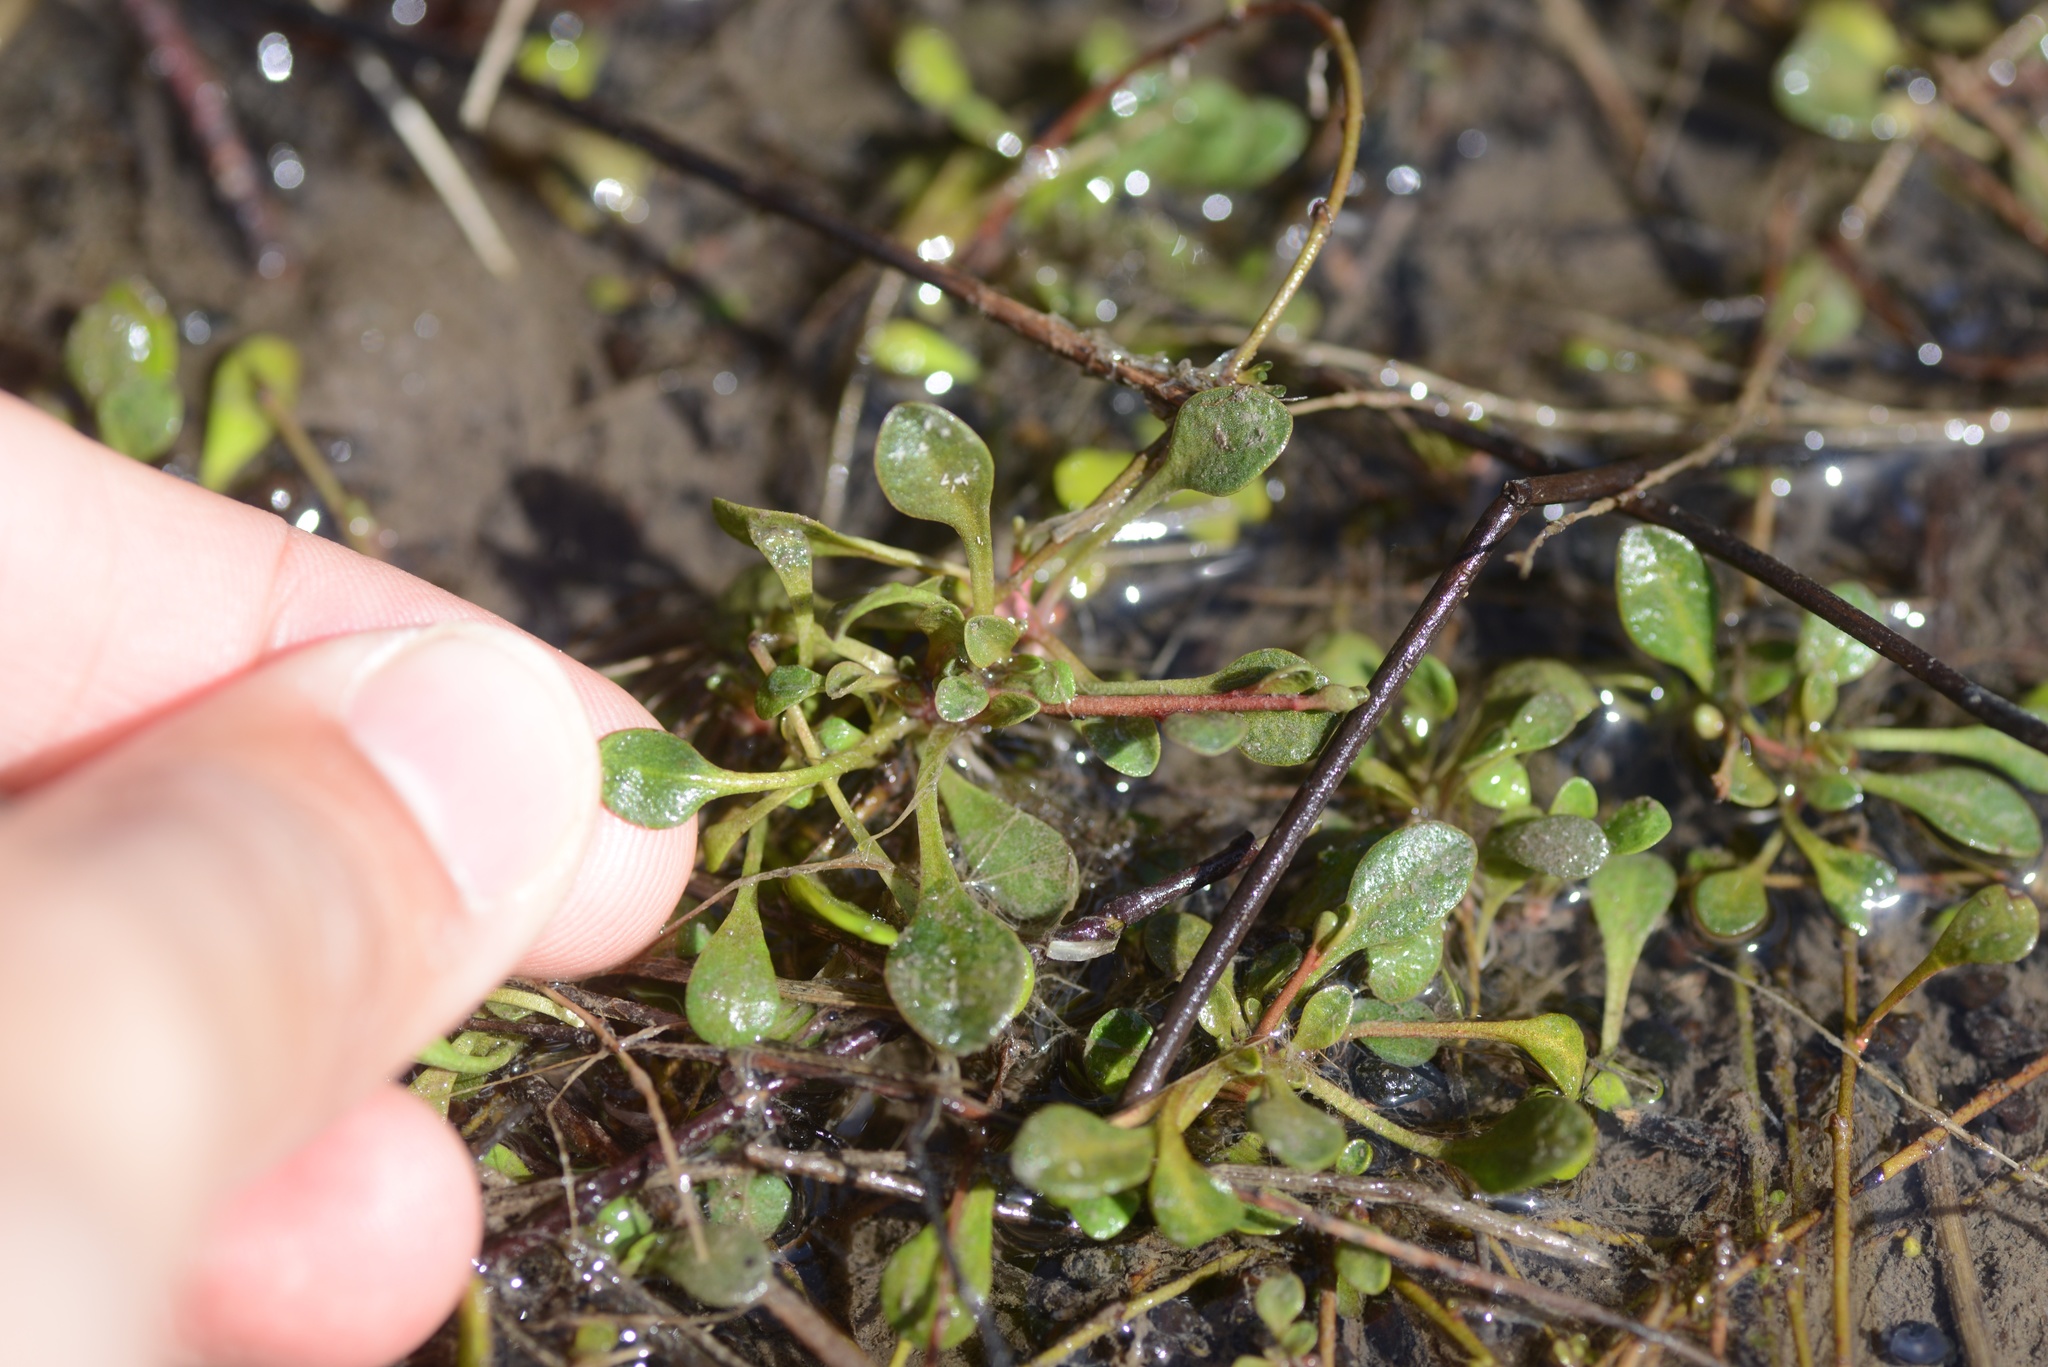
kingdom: Plantae
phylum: Tracheophyta
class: Magnoliopsida
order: Ericales
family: Primulaceae
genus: Samolus
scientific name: Samolus repens
